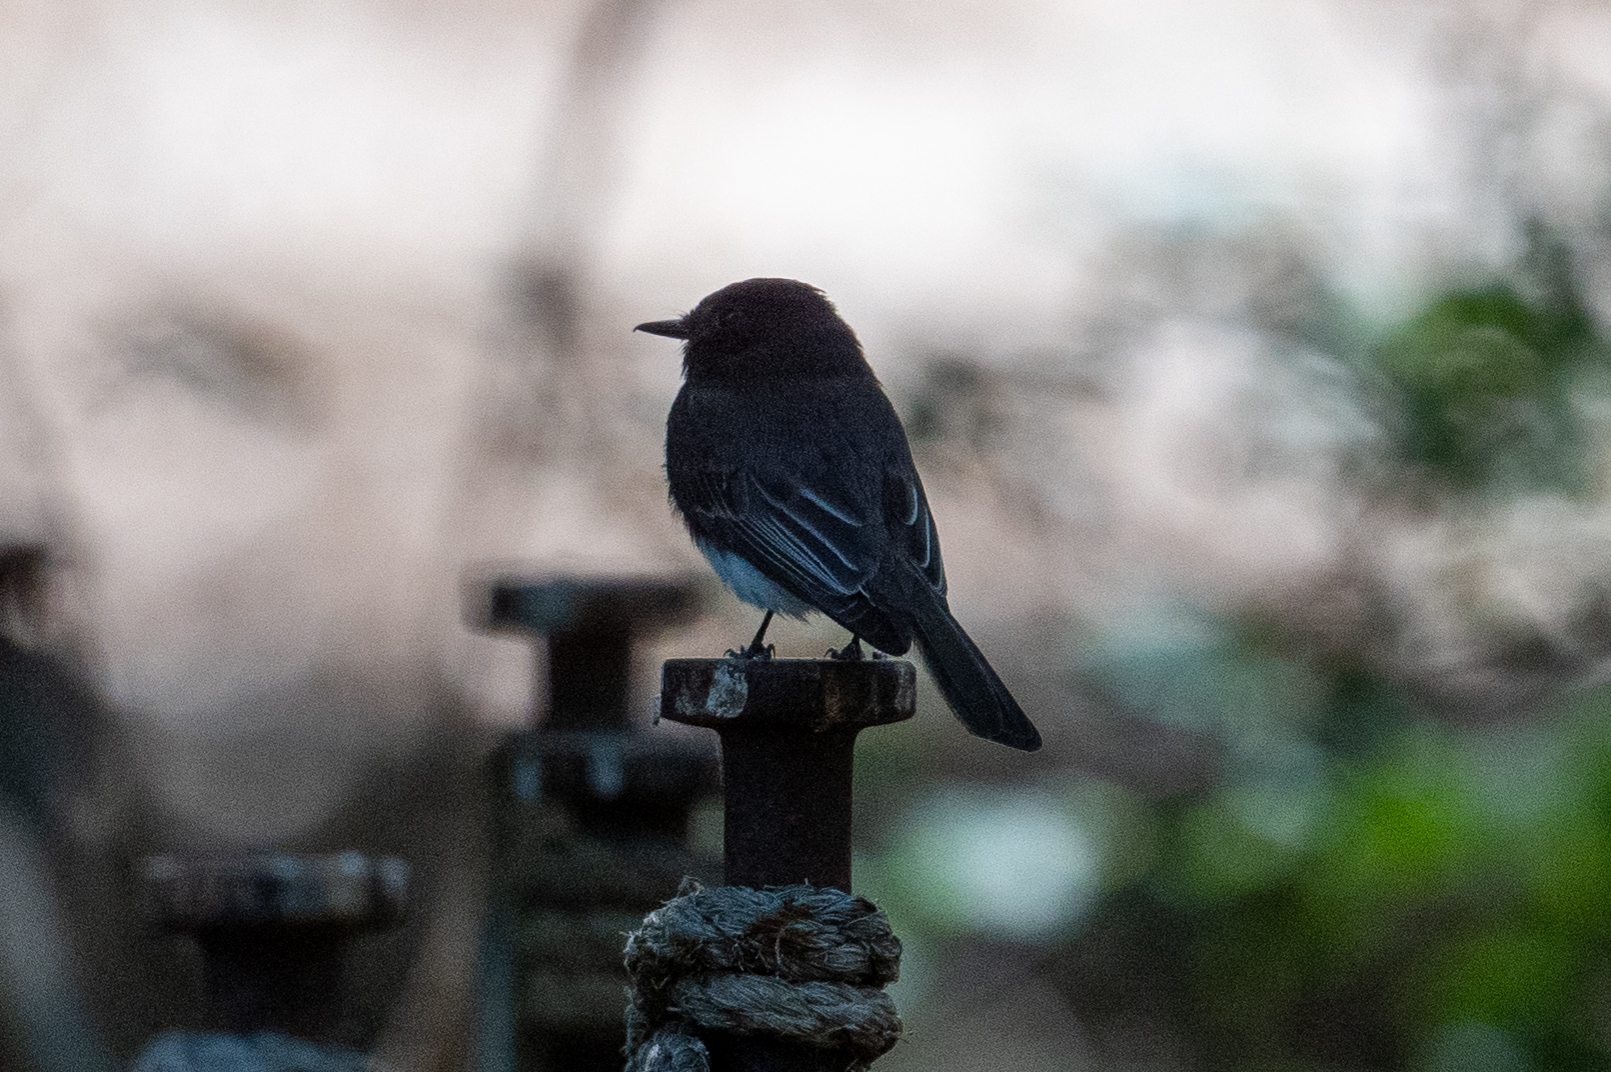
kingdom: Animalia
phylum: Chordata
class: Aves
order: Passeriformes
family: Tyrannidae
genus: Sayornis
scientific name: Sayornis nigricans
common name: Black phoebe
